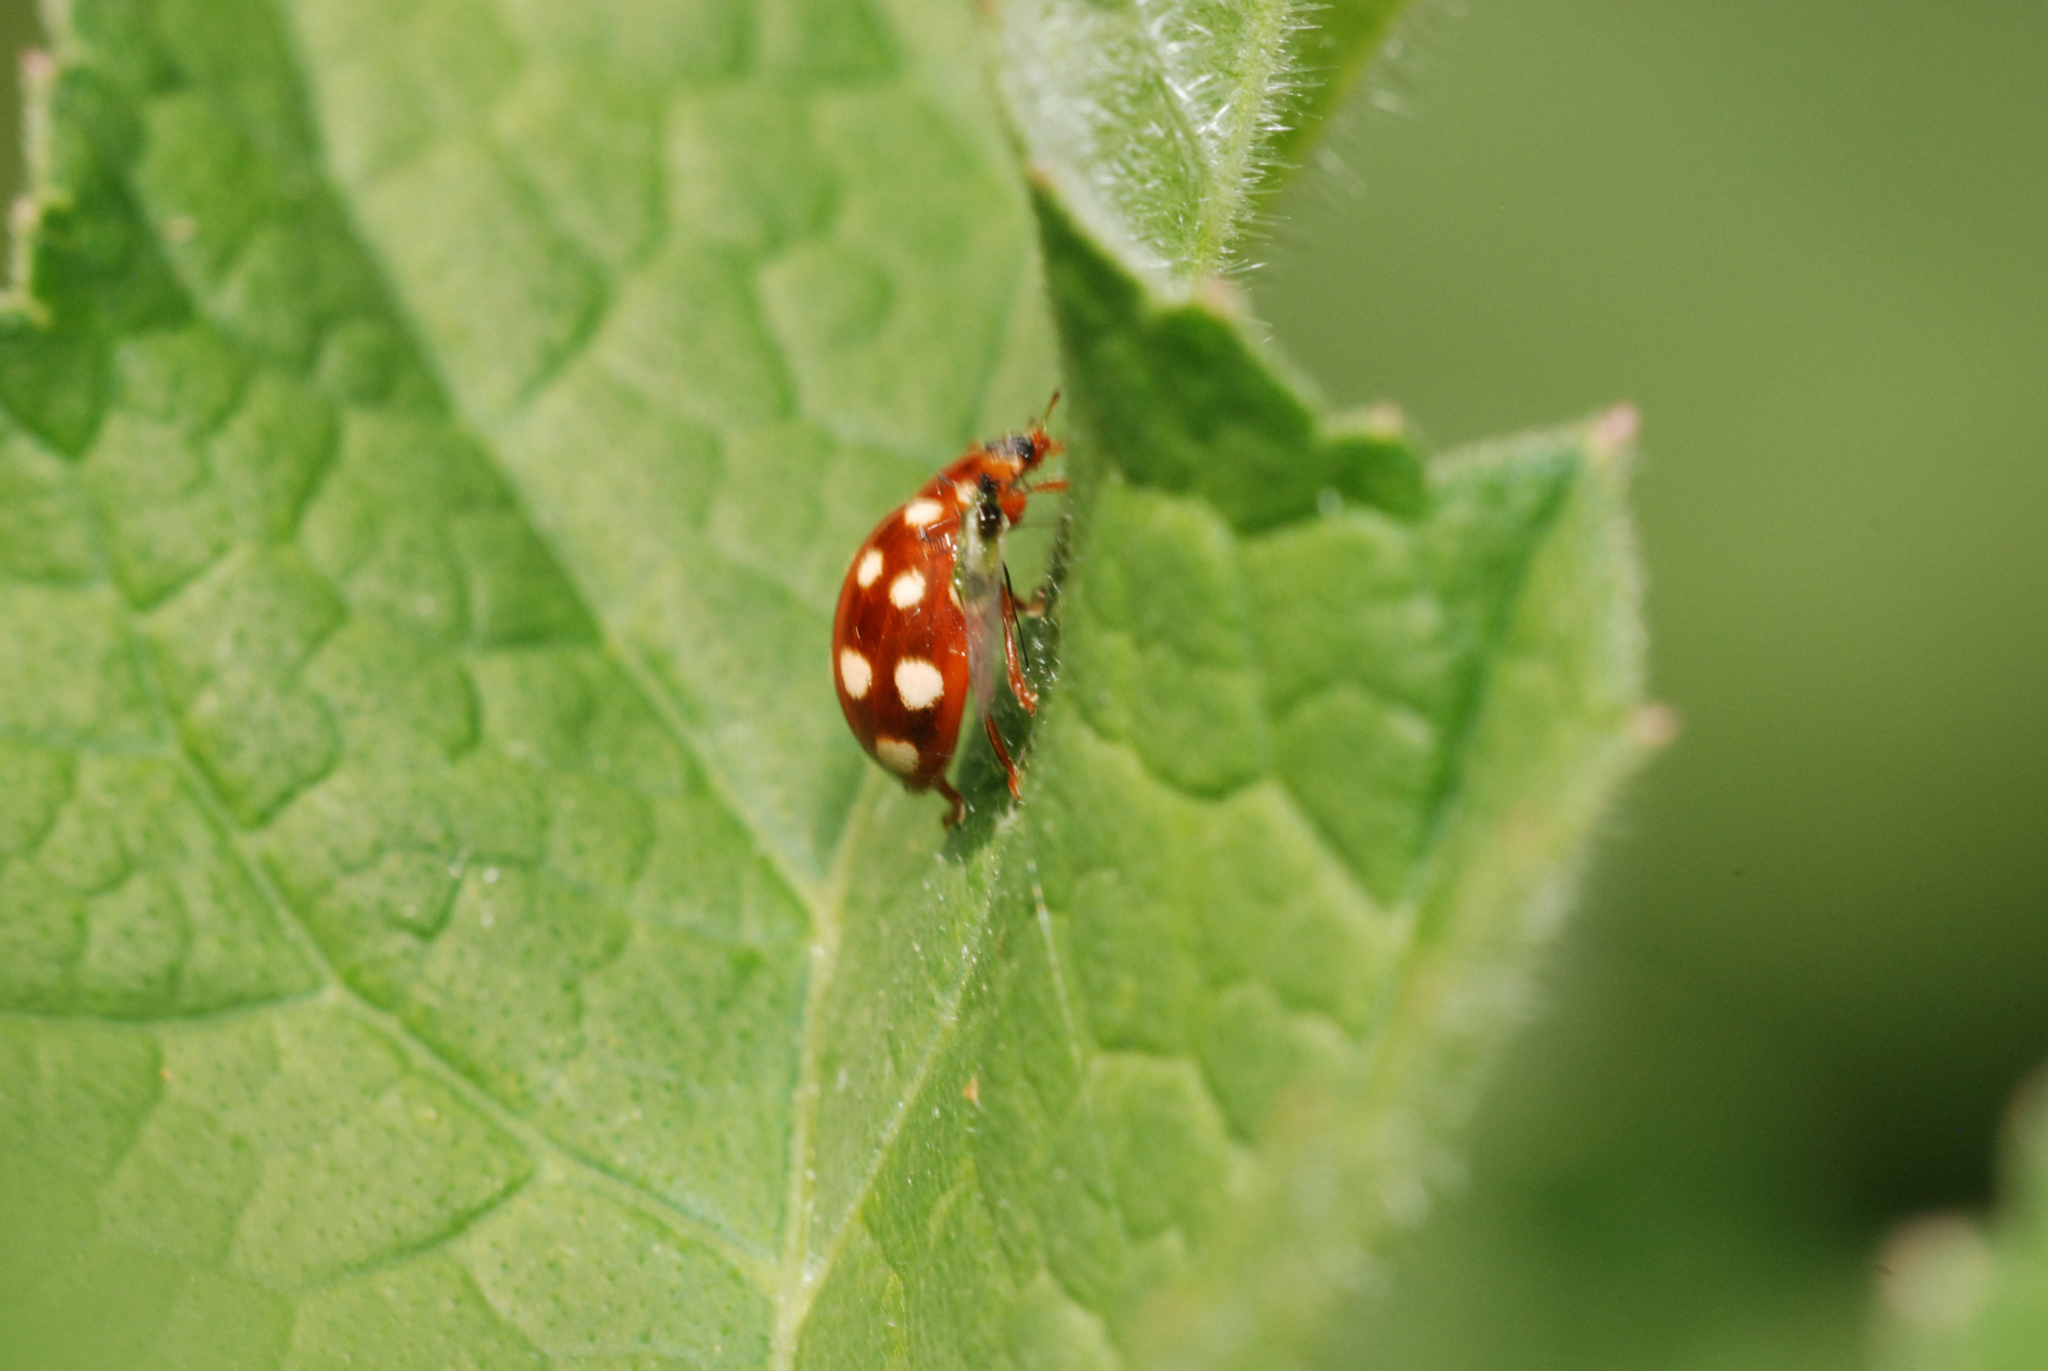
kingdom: Animalia
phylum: Arthropoda
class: Insecta
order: Coleoptera
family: Coccinellidae
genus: Calvia
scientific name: Calvia quatuordecimguttata
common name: Cream-spot ladybird
